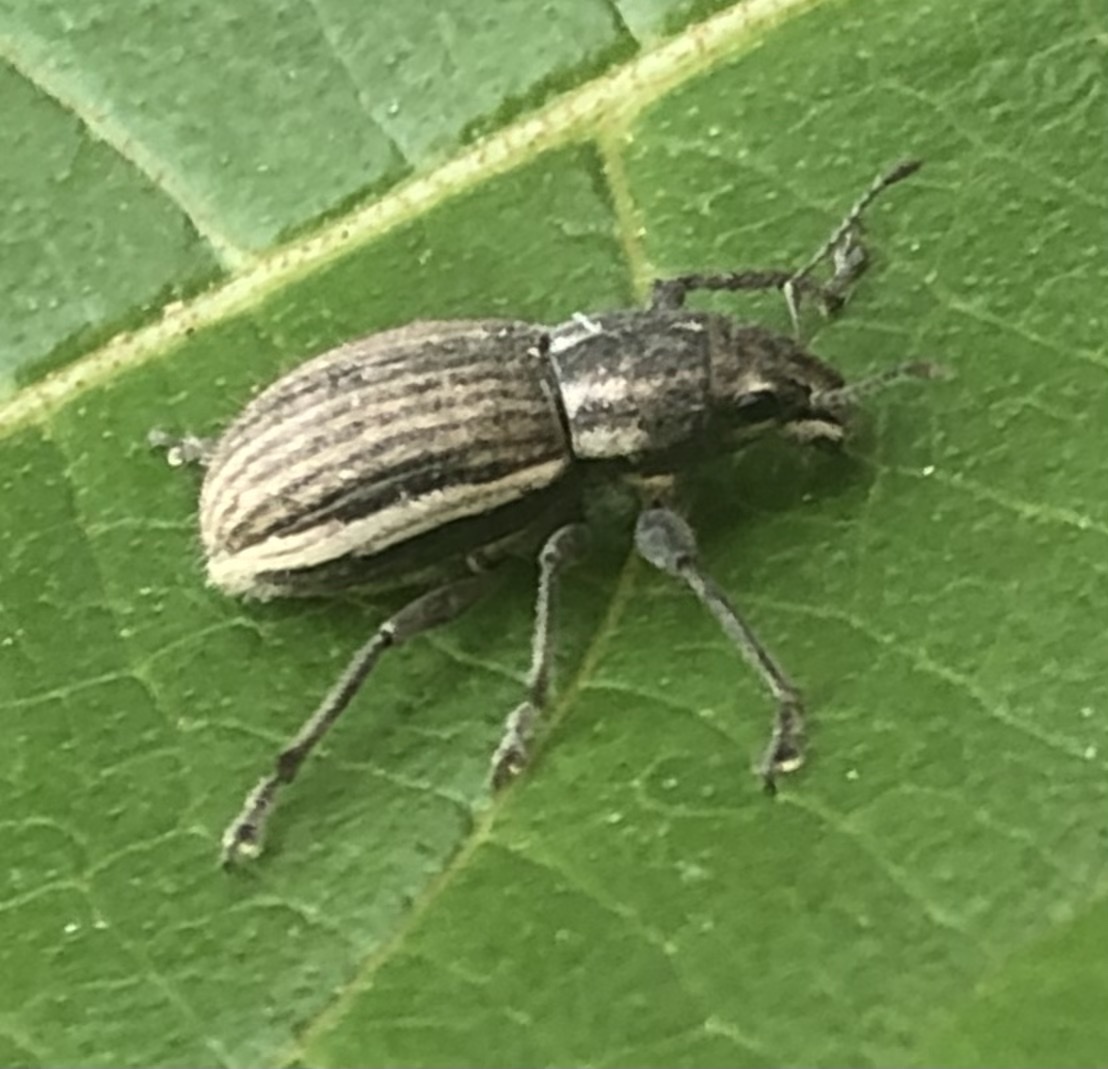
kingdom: Animalia
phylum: Arthropoda
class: Insecta
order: Coleoptera
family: Curculionidae
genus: Naupactus
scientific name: Naupactus leucoloma
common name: Whitefringed beetle
